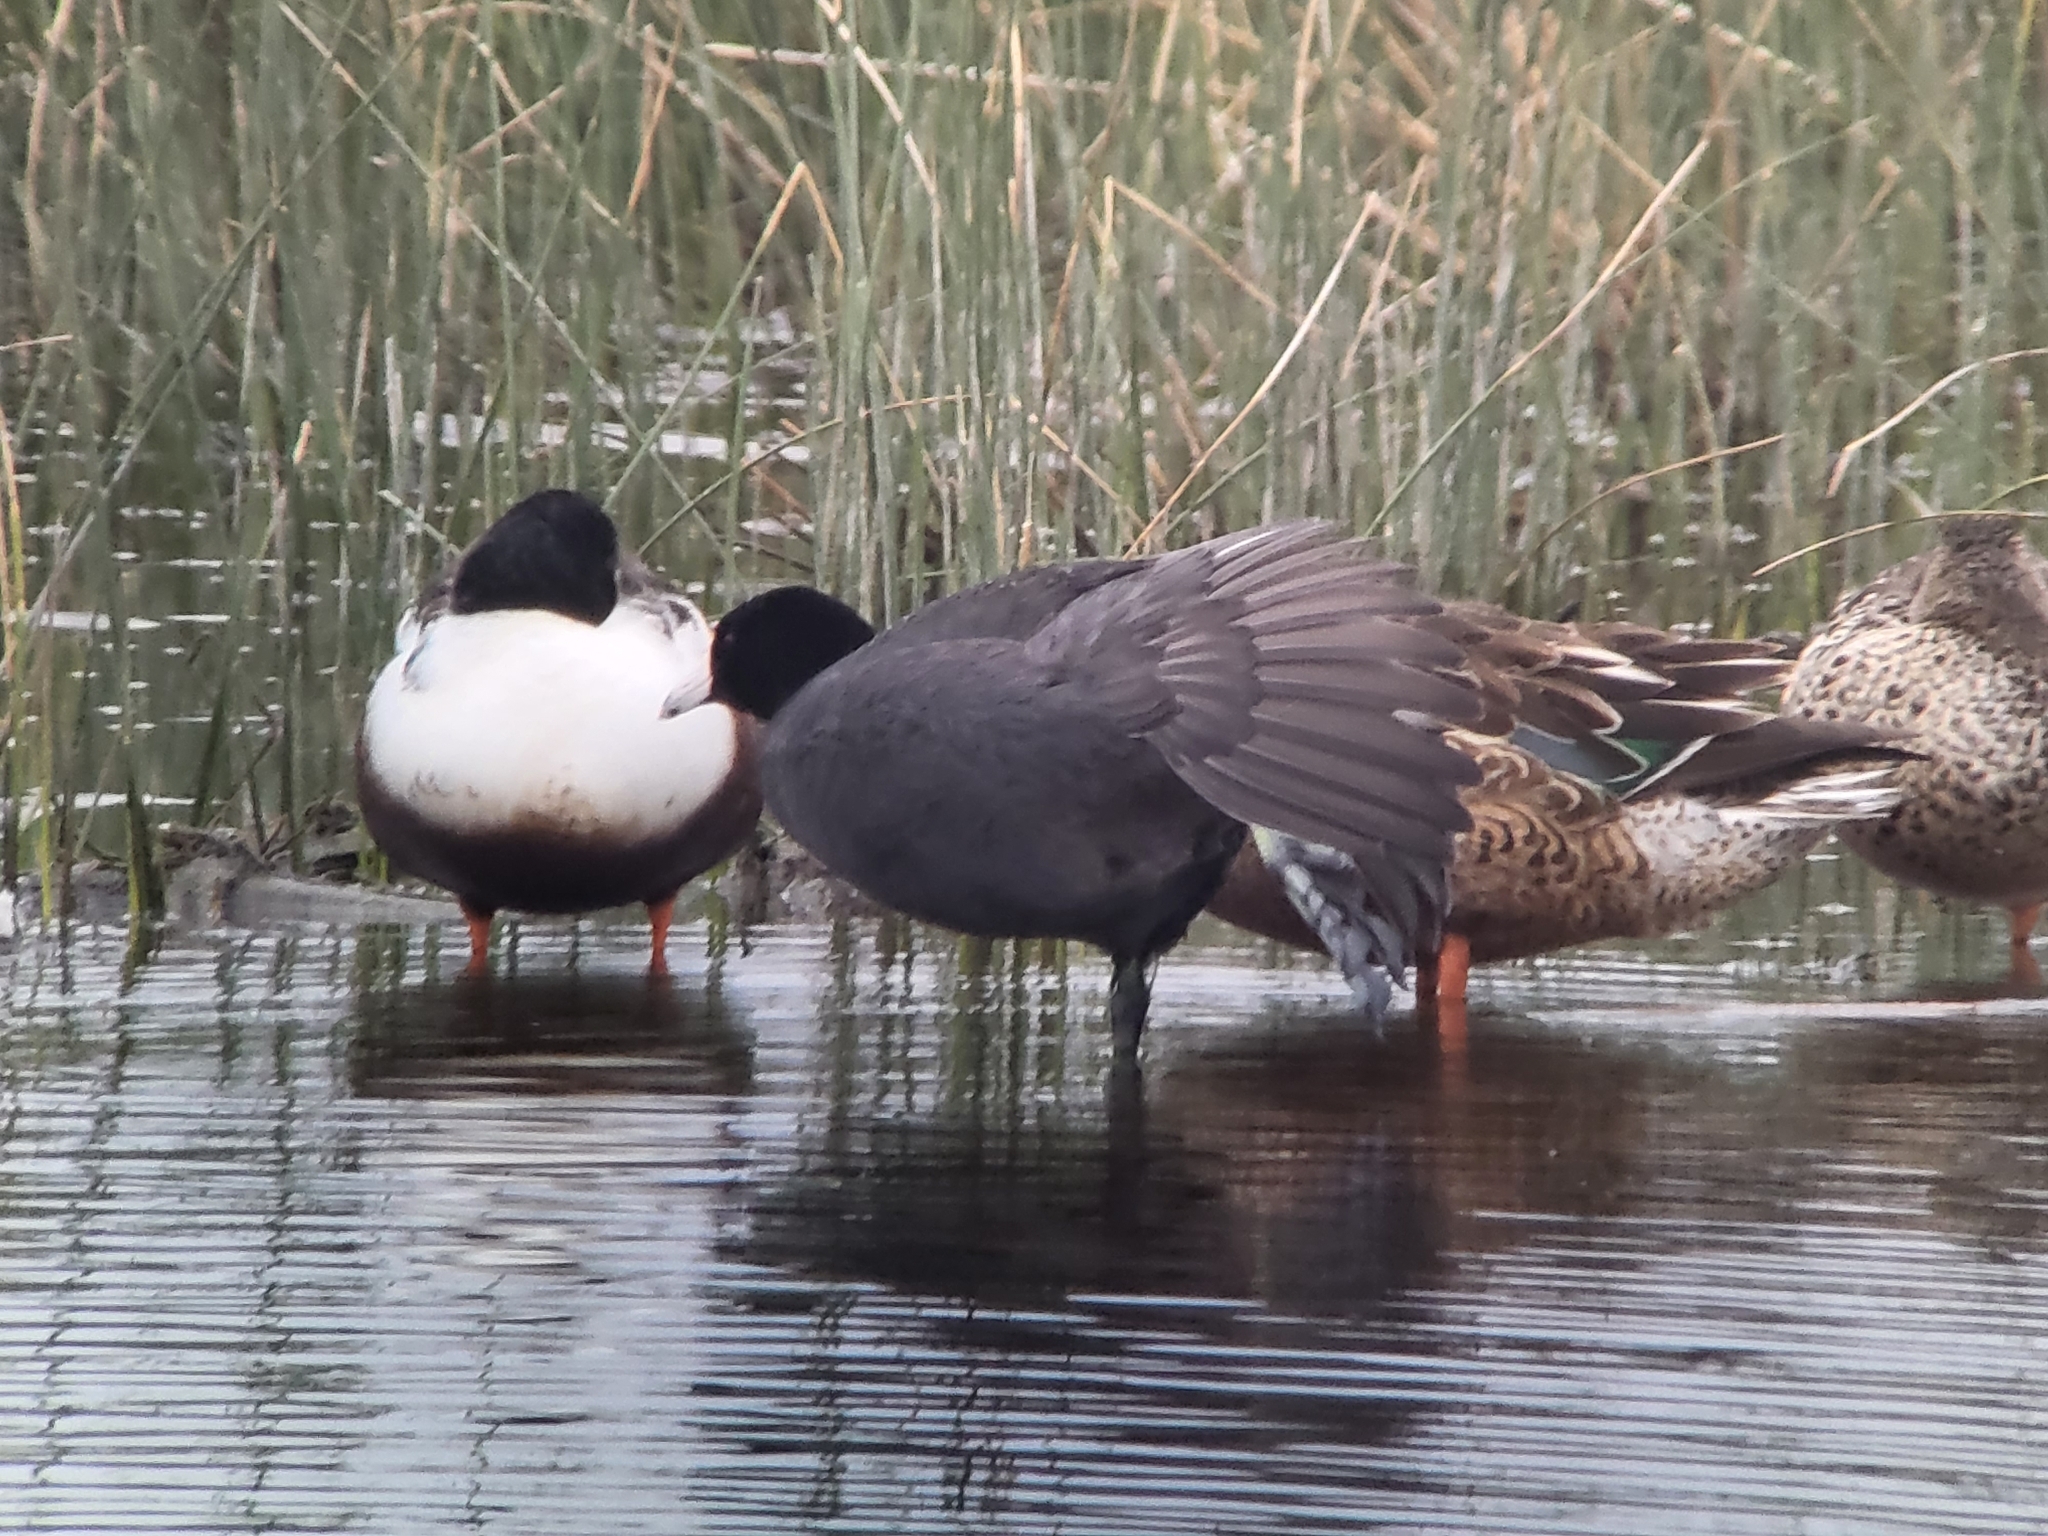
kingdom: Animalia
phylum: Chordata
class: Aves
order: Gruiformes
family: Rallidae
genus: Fulica
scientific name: Fulica americana
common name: American coot
